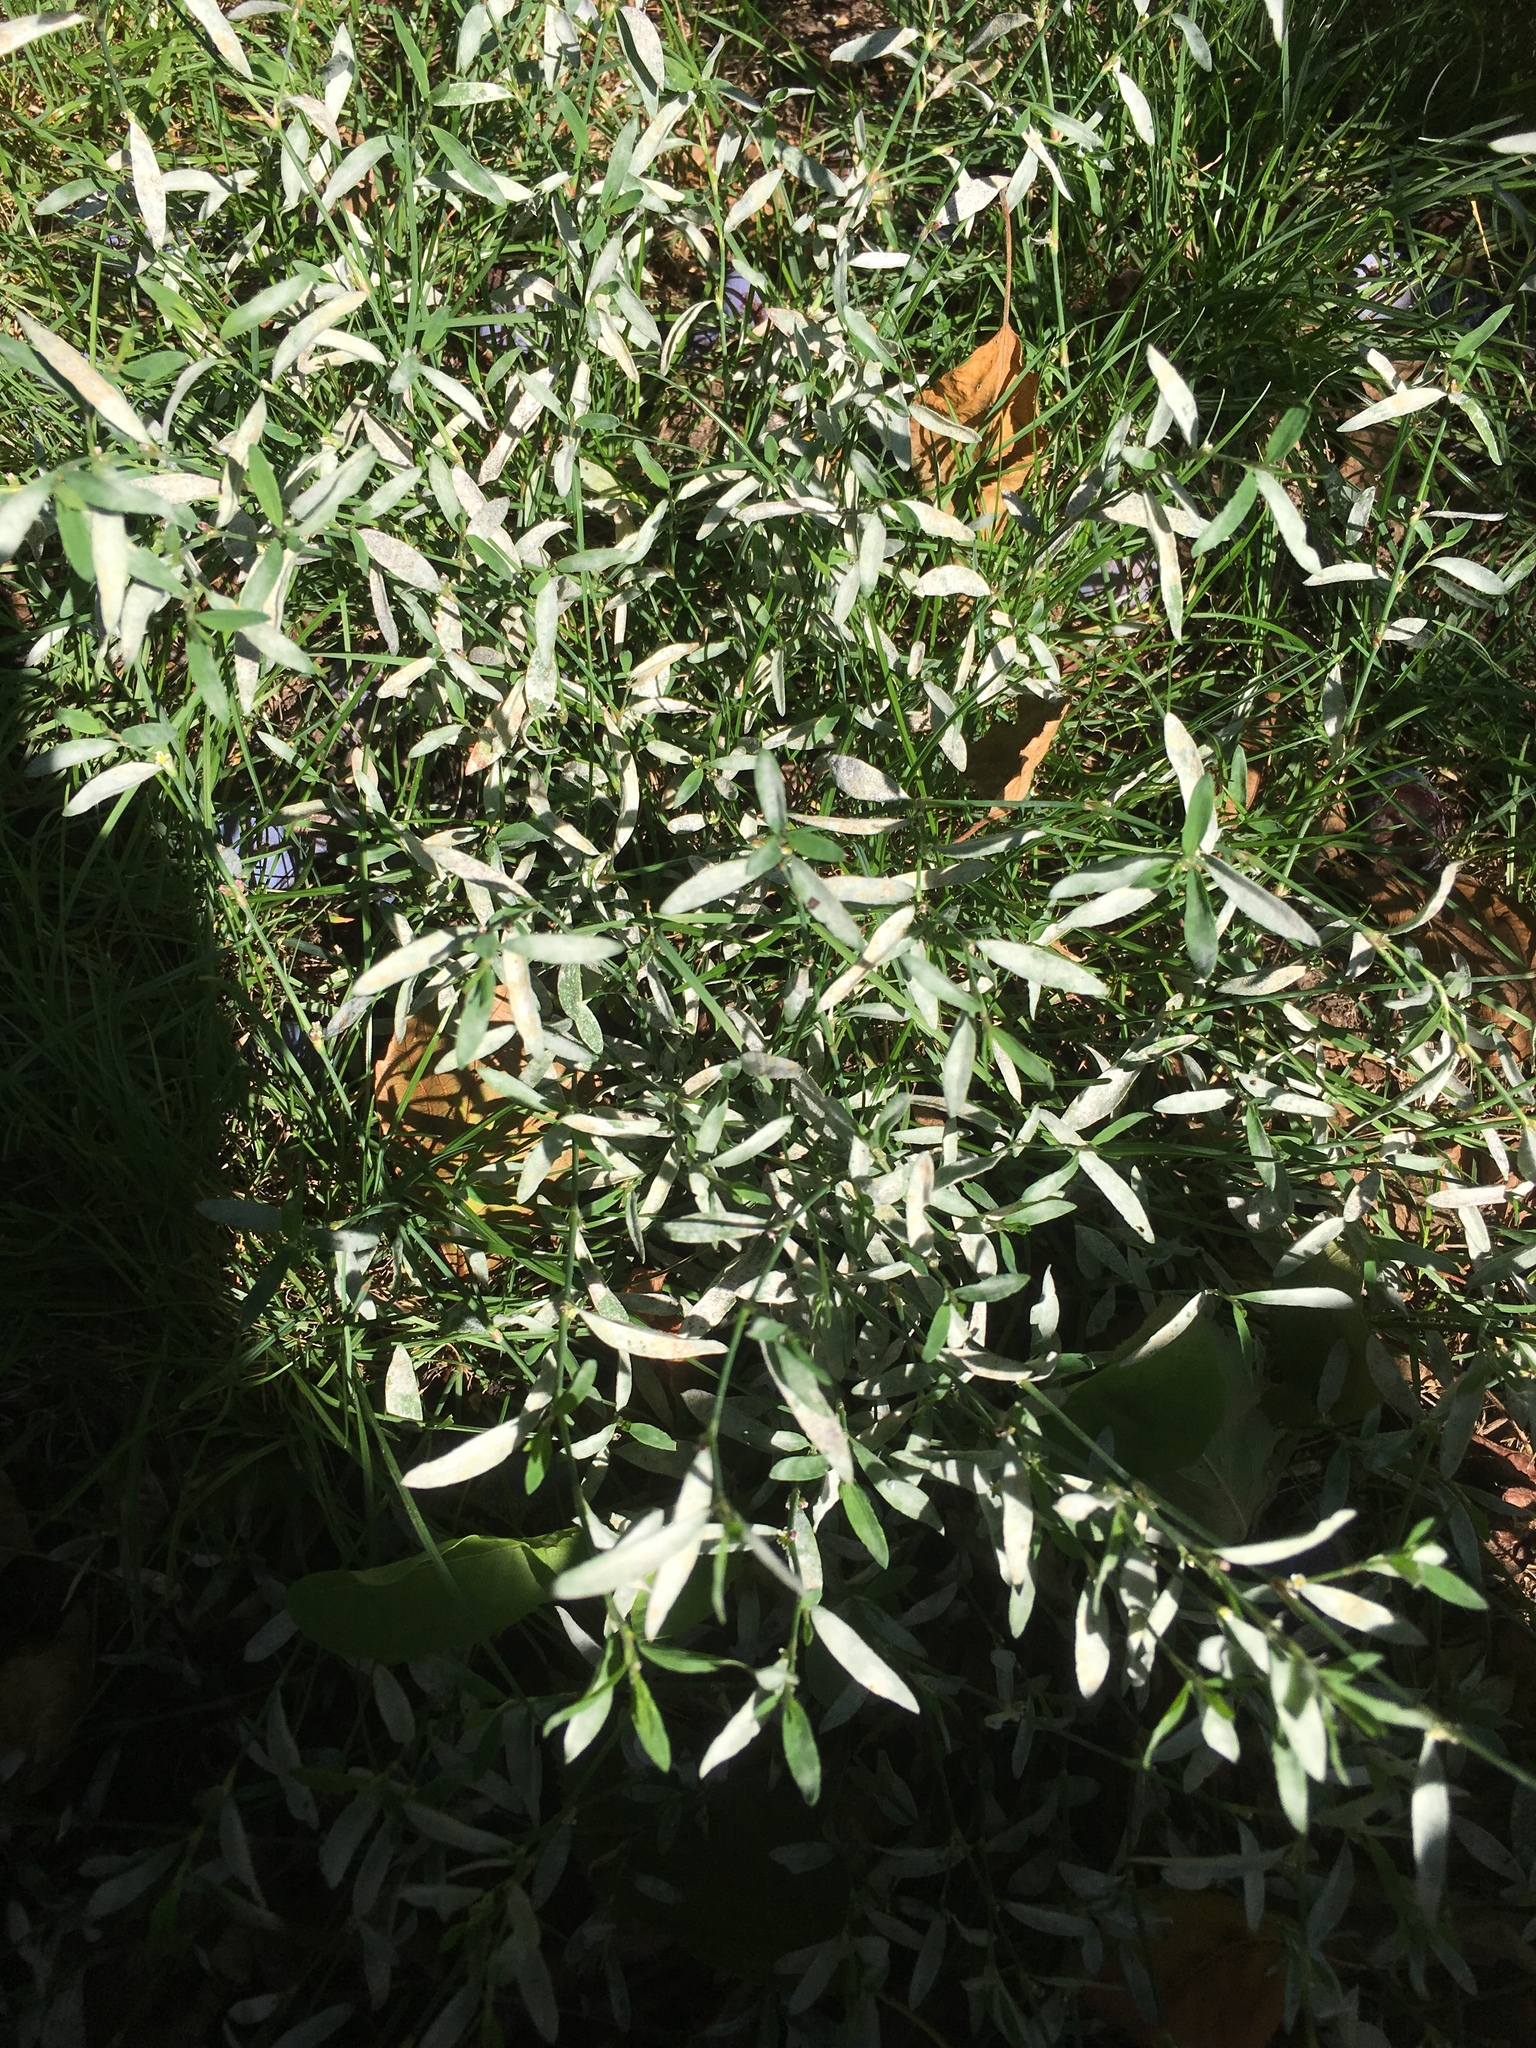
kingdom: Plantae
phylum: Tracheophyta
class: Magnoliopsida
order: Caryophyllales
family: Polygonaceae
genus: Polygonum
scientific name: Polygonum aviculare
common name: Prostrate knotweed
